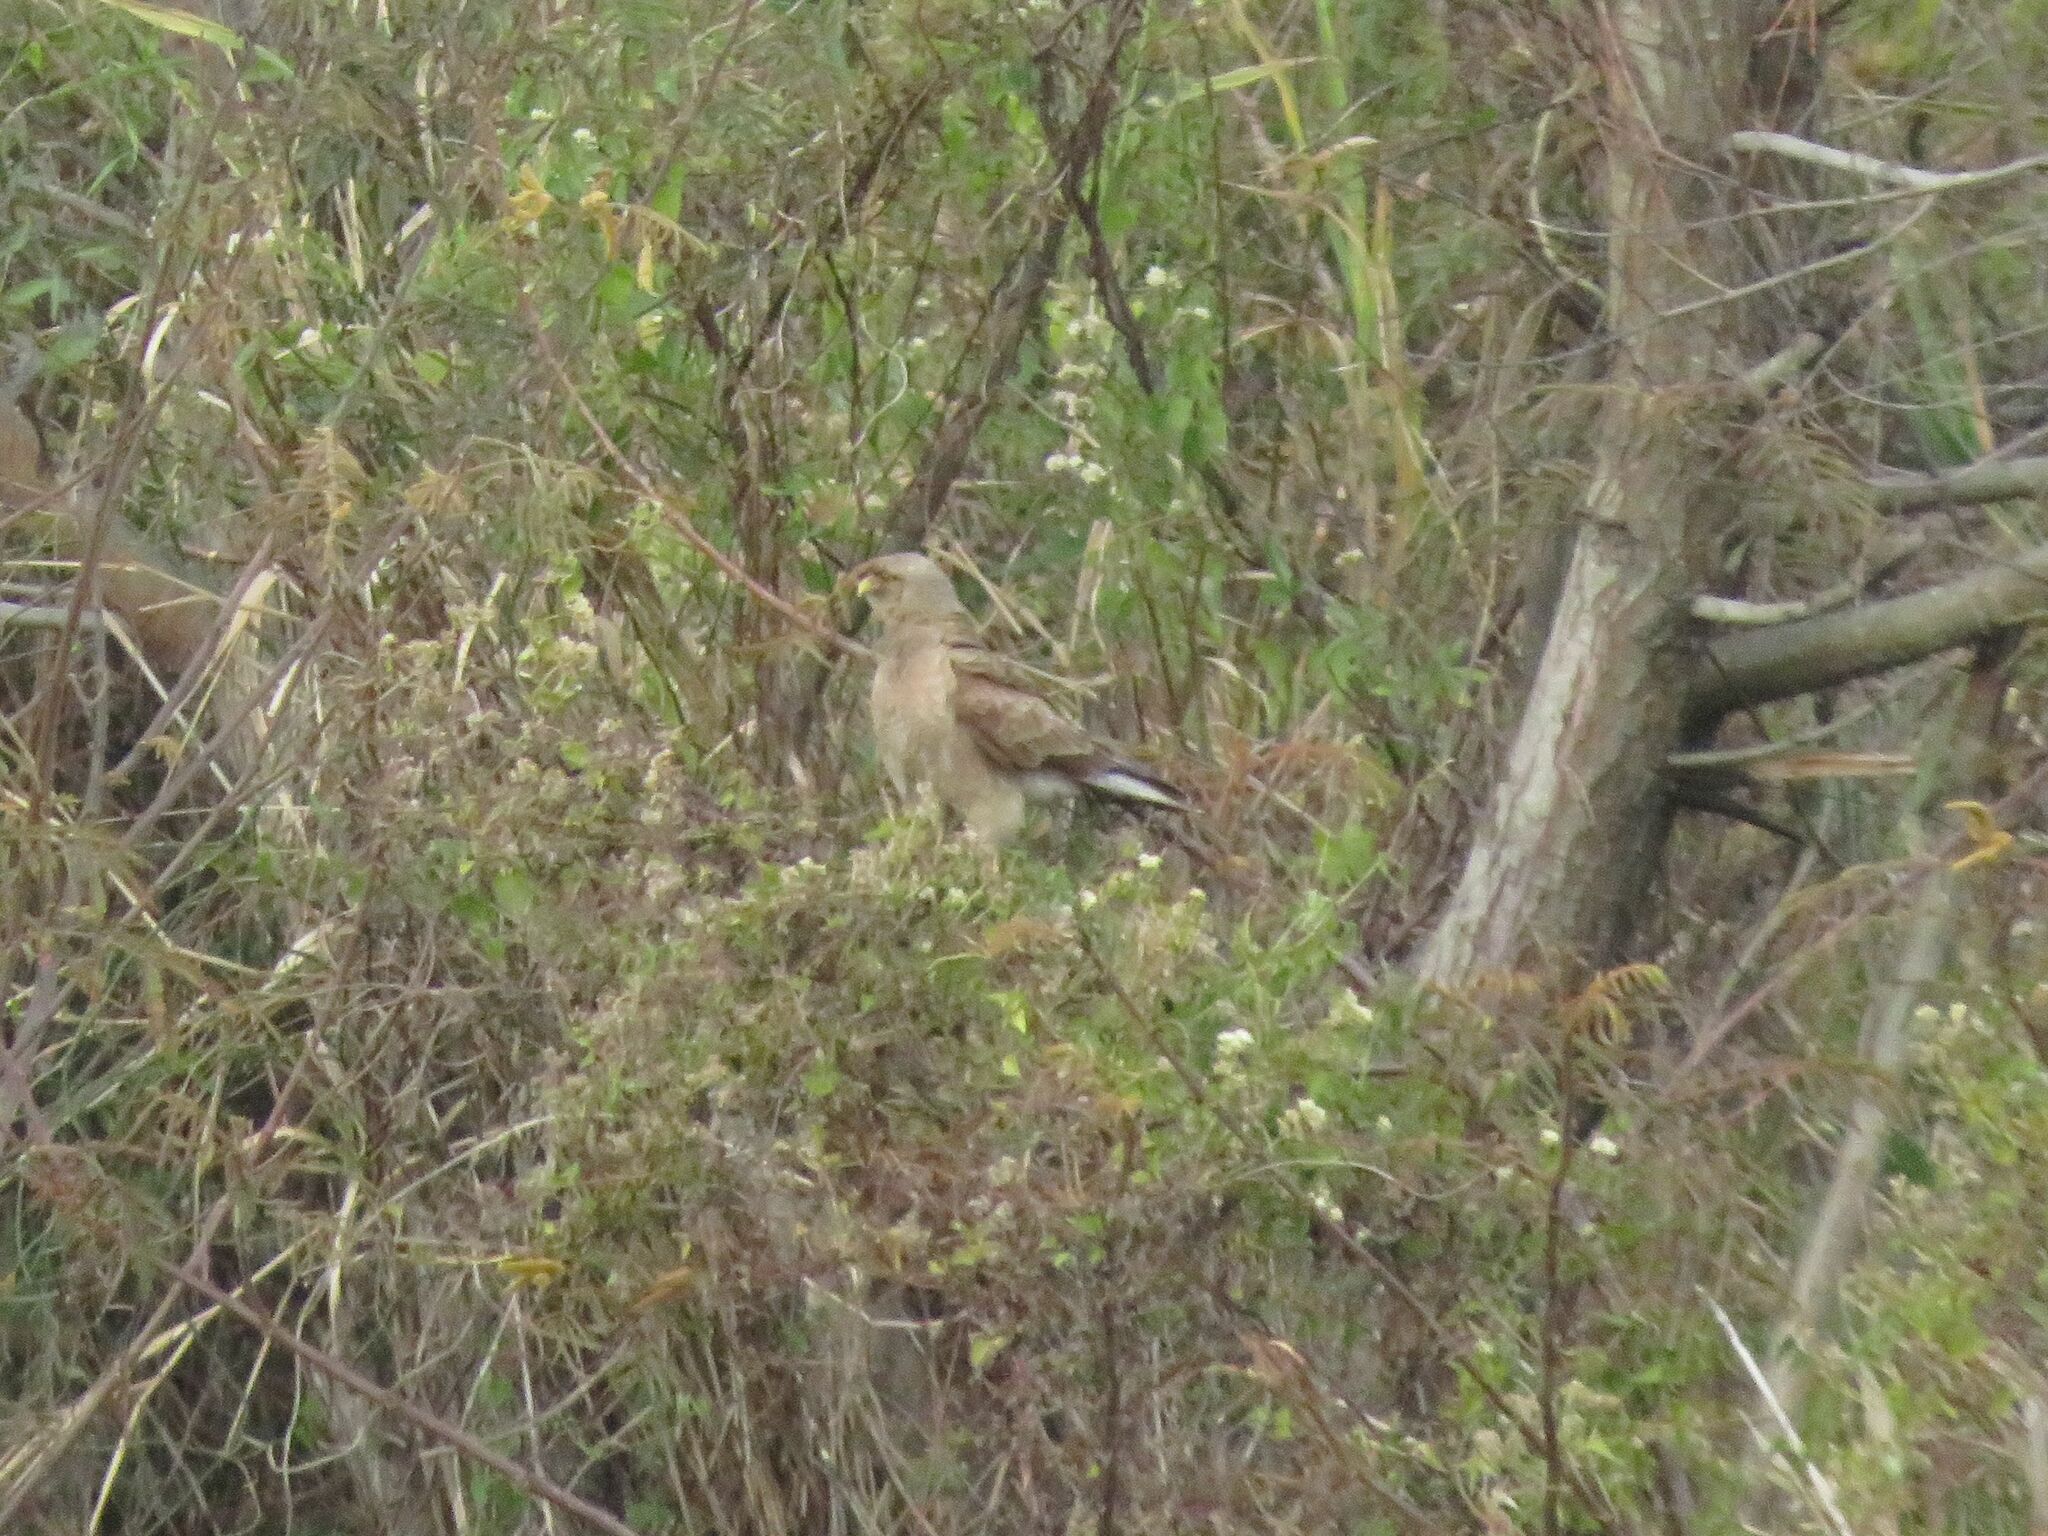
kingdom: Animalia
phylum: Chordata
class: Aves
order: Falconiformes
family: Falconidae
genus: Daptrius
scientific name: Daptrius
